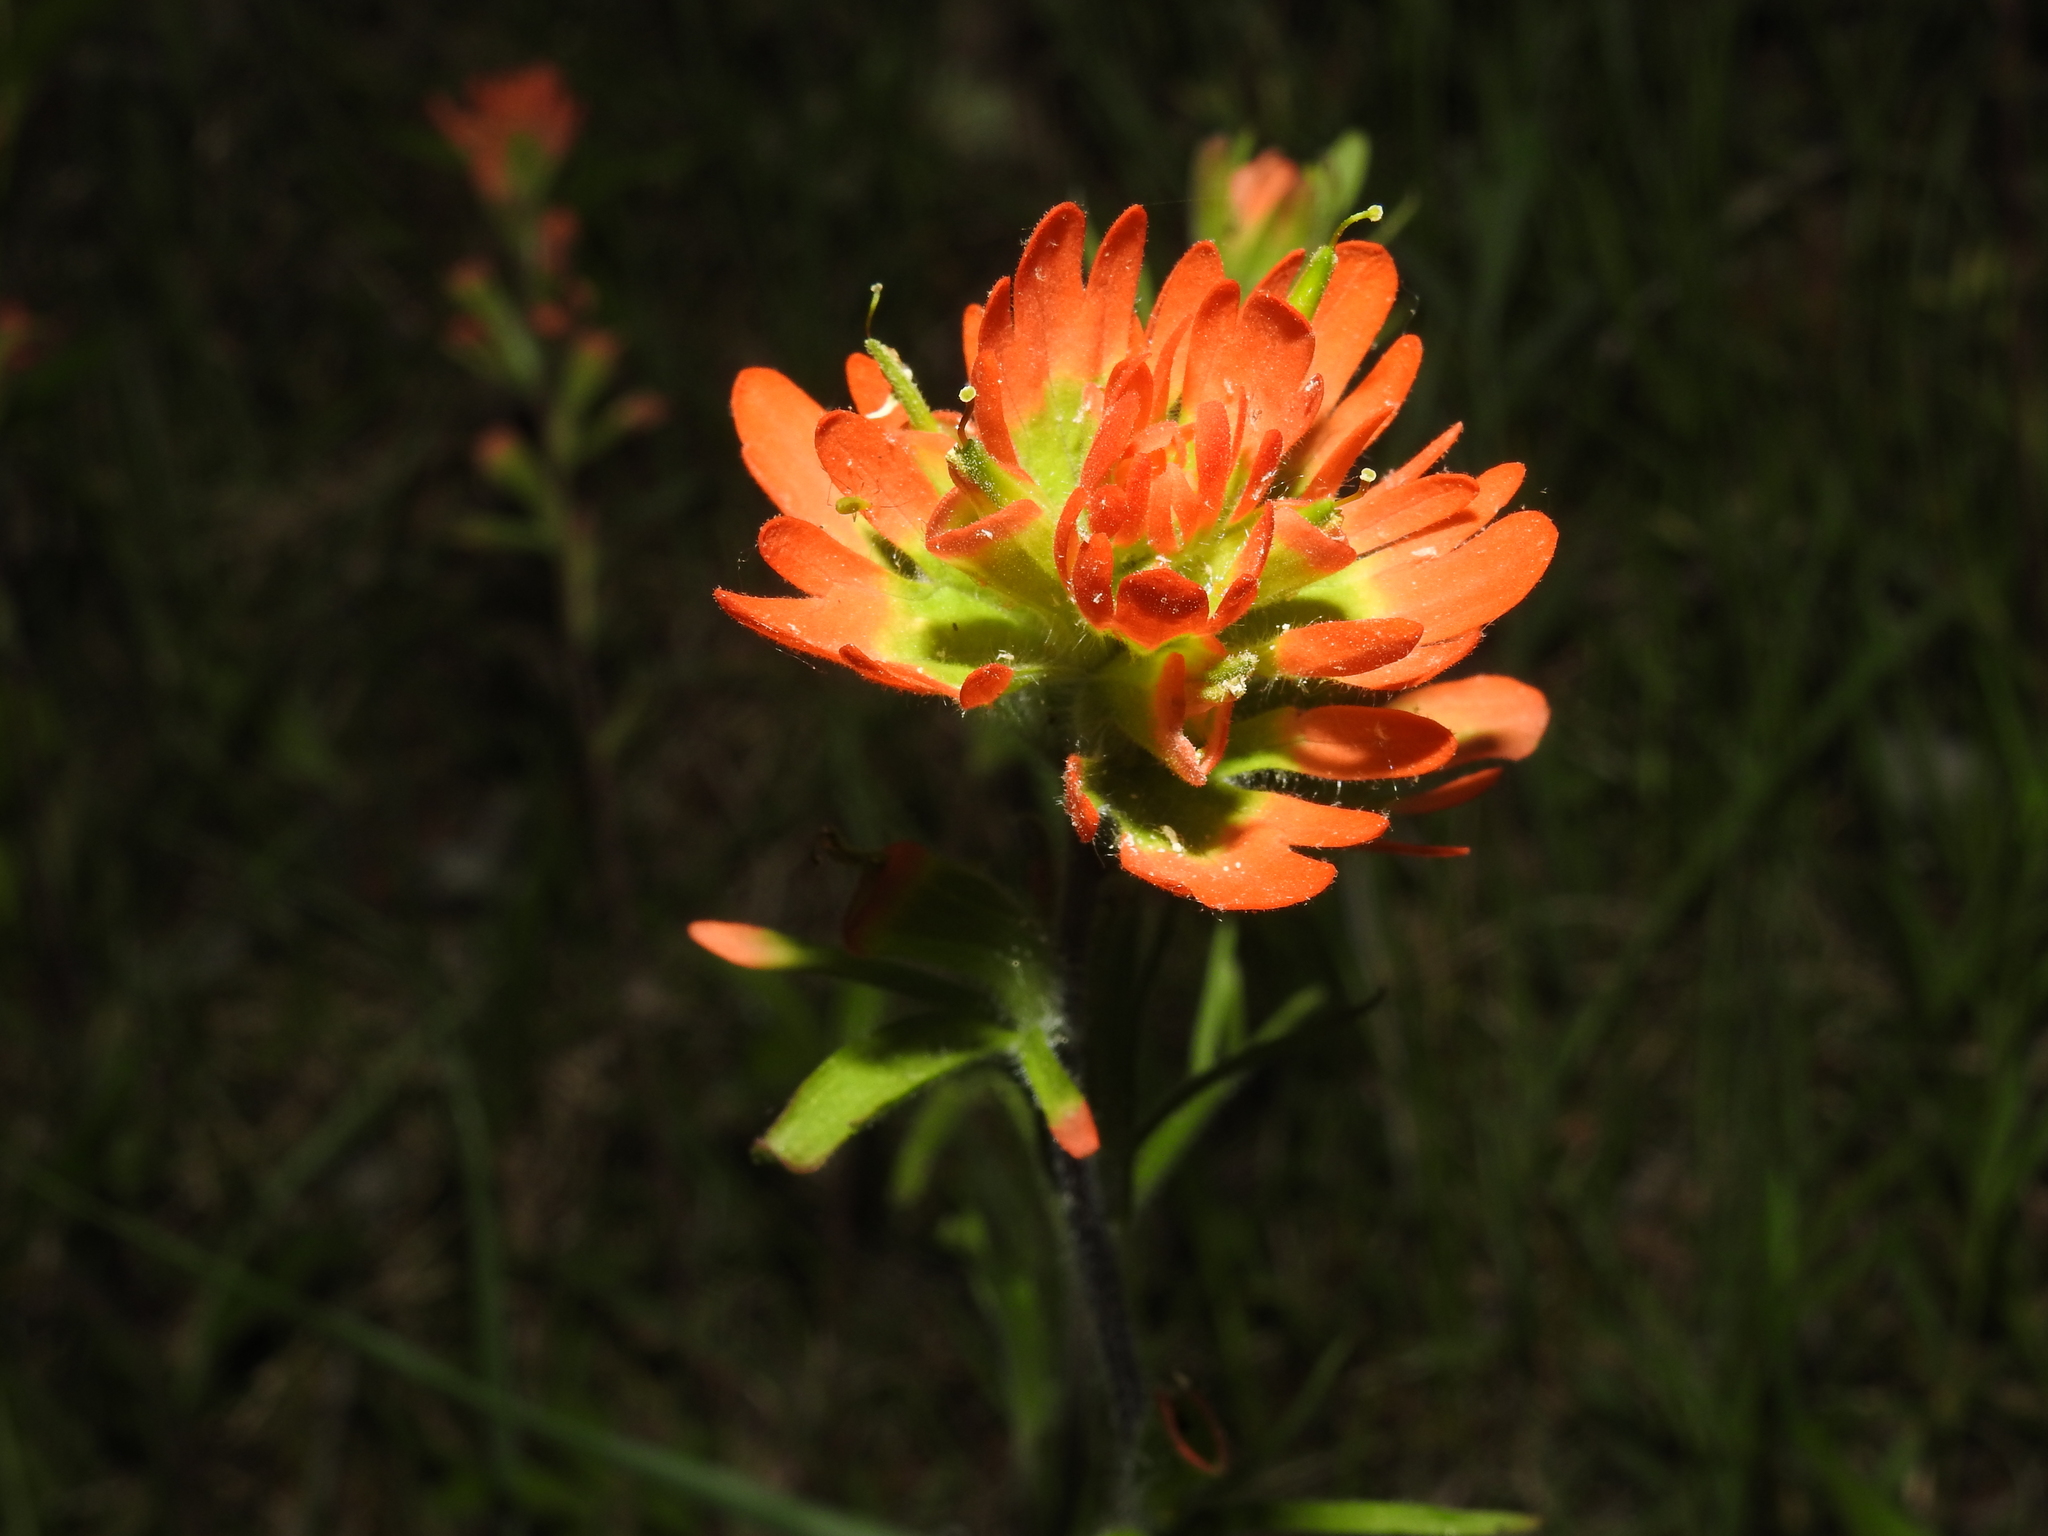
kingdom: Plantae
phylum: Tracheophyta
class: Magnoliopsida
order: Lamiales
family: Orobanchaceae
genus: Castilleja
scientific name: Castilleja coccinea
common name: Scarlet paintbrush
